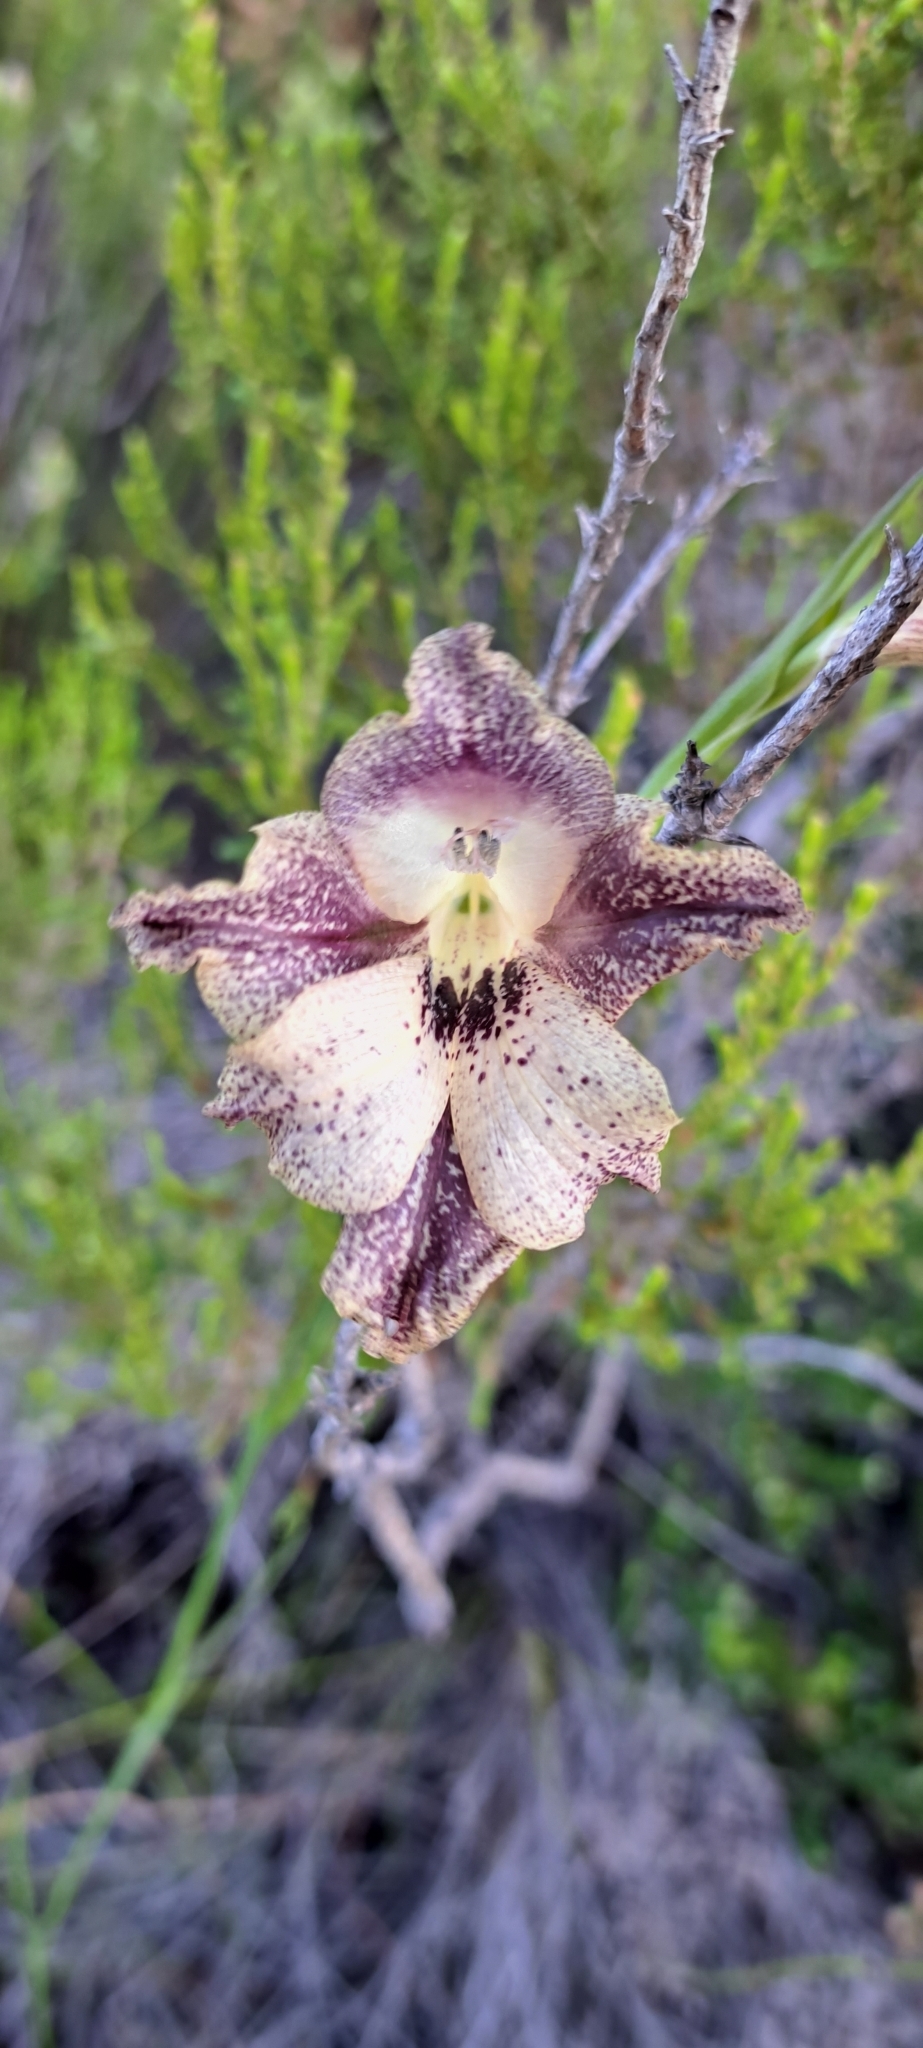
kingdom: Plantae
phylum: Tracheophyta
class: Liliopsida
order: Asparagales
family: Iridaceae
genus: Gladiolus
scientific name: Gladiolus maculatus
